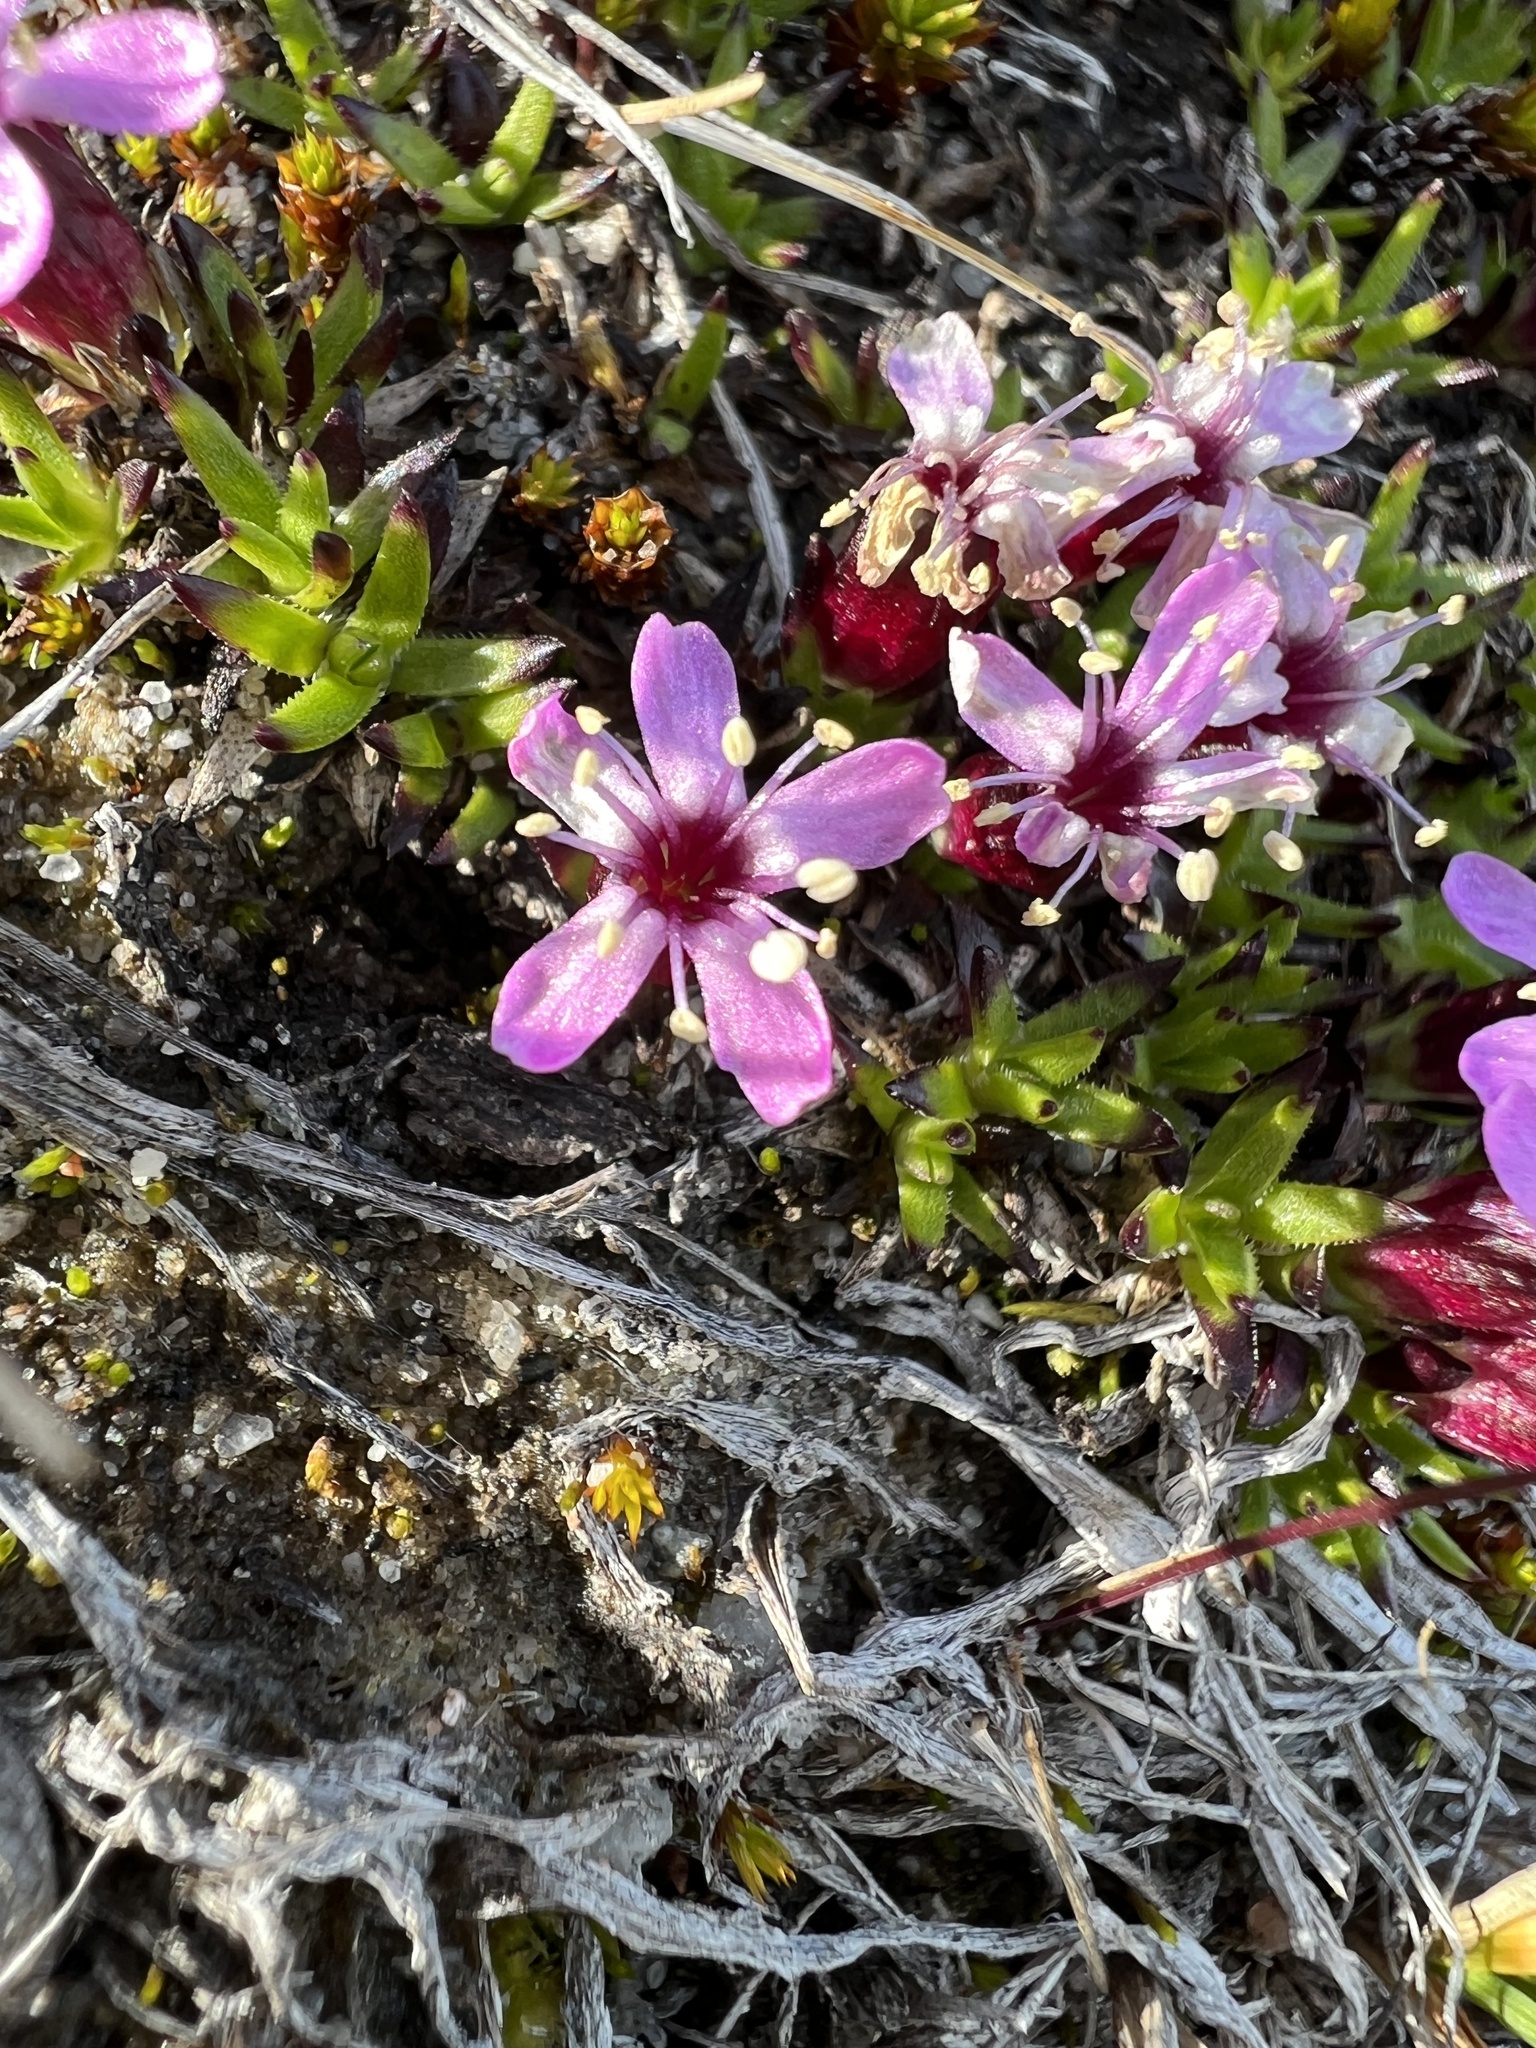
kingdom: Plantae
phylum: Tracheophyta
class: Magnoliopsida
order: Caryophyllales
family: Caryophyllaceae
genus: Silene
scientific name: Silene acaulis
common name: Moss campion
